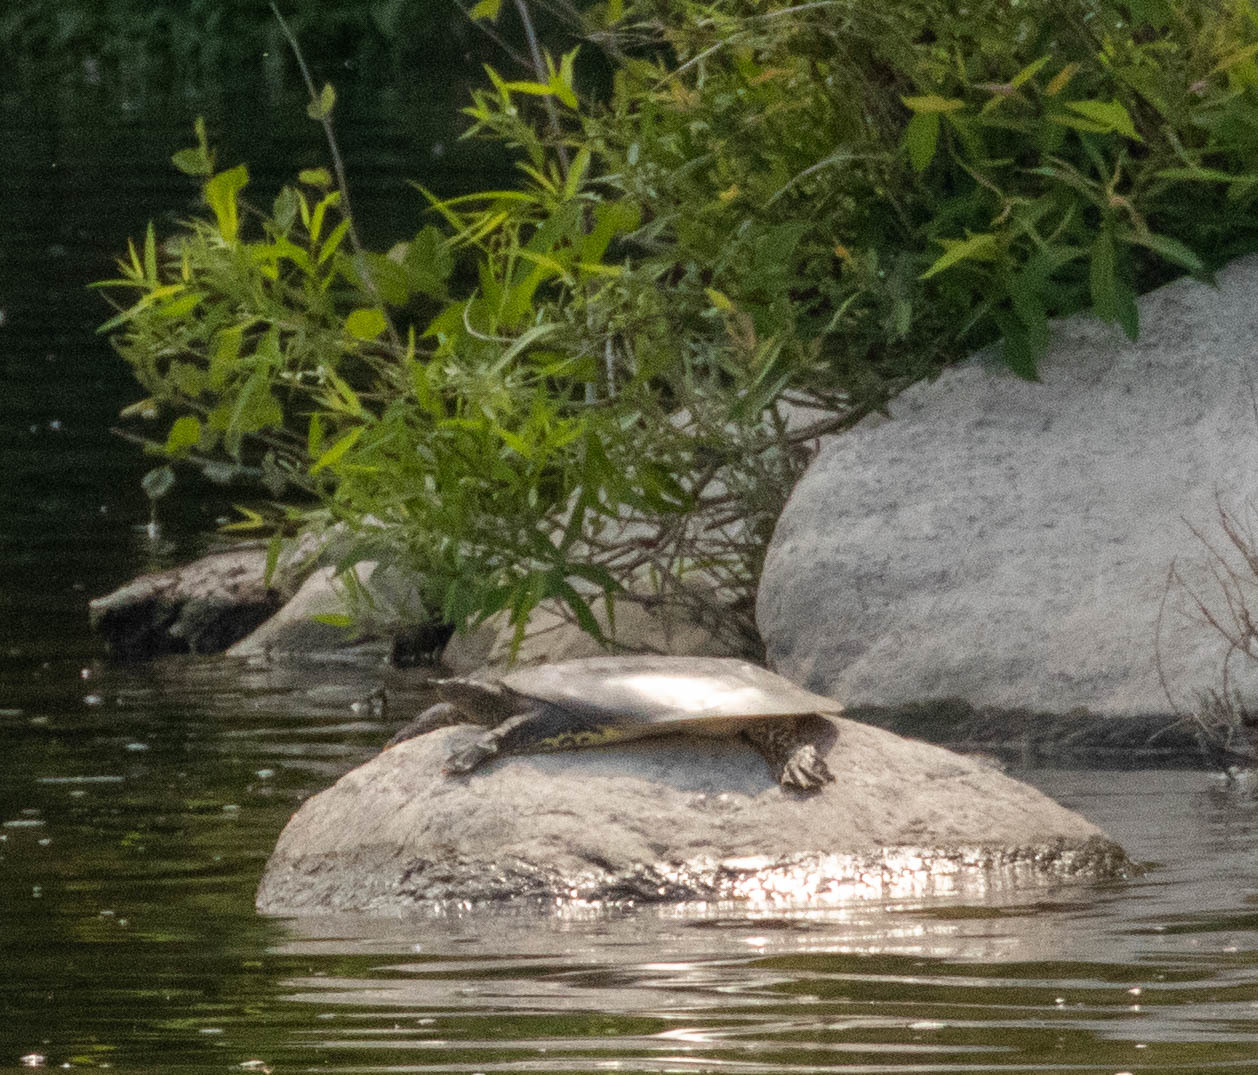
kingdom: Animalia
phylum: Chordata
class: Testudines
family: Trionychidae
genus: Apalone
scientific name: Apalone spinifera
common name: Spiny softshell turtle
